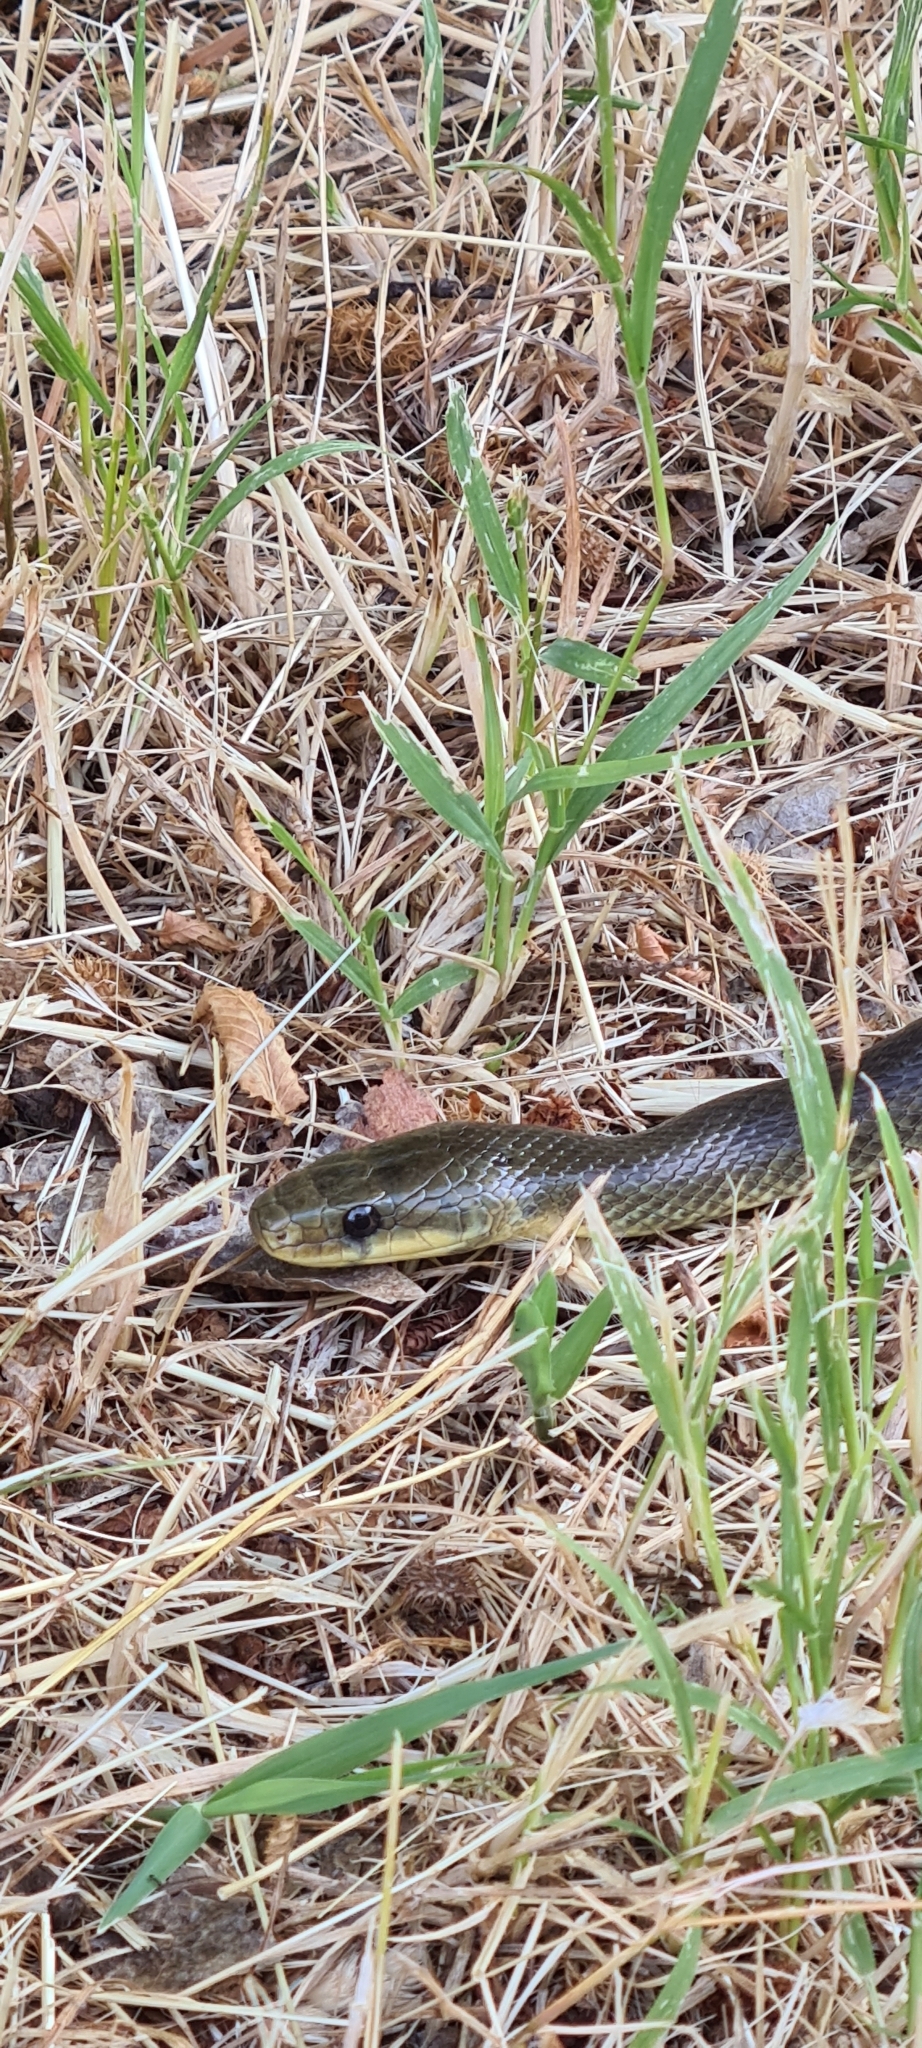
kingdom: Animalia
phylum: Chordata
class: Squamata
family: Colubridae
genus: Zamenis
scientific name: Zamenis longissimus
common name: Aesculapean snake
